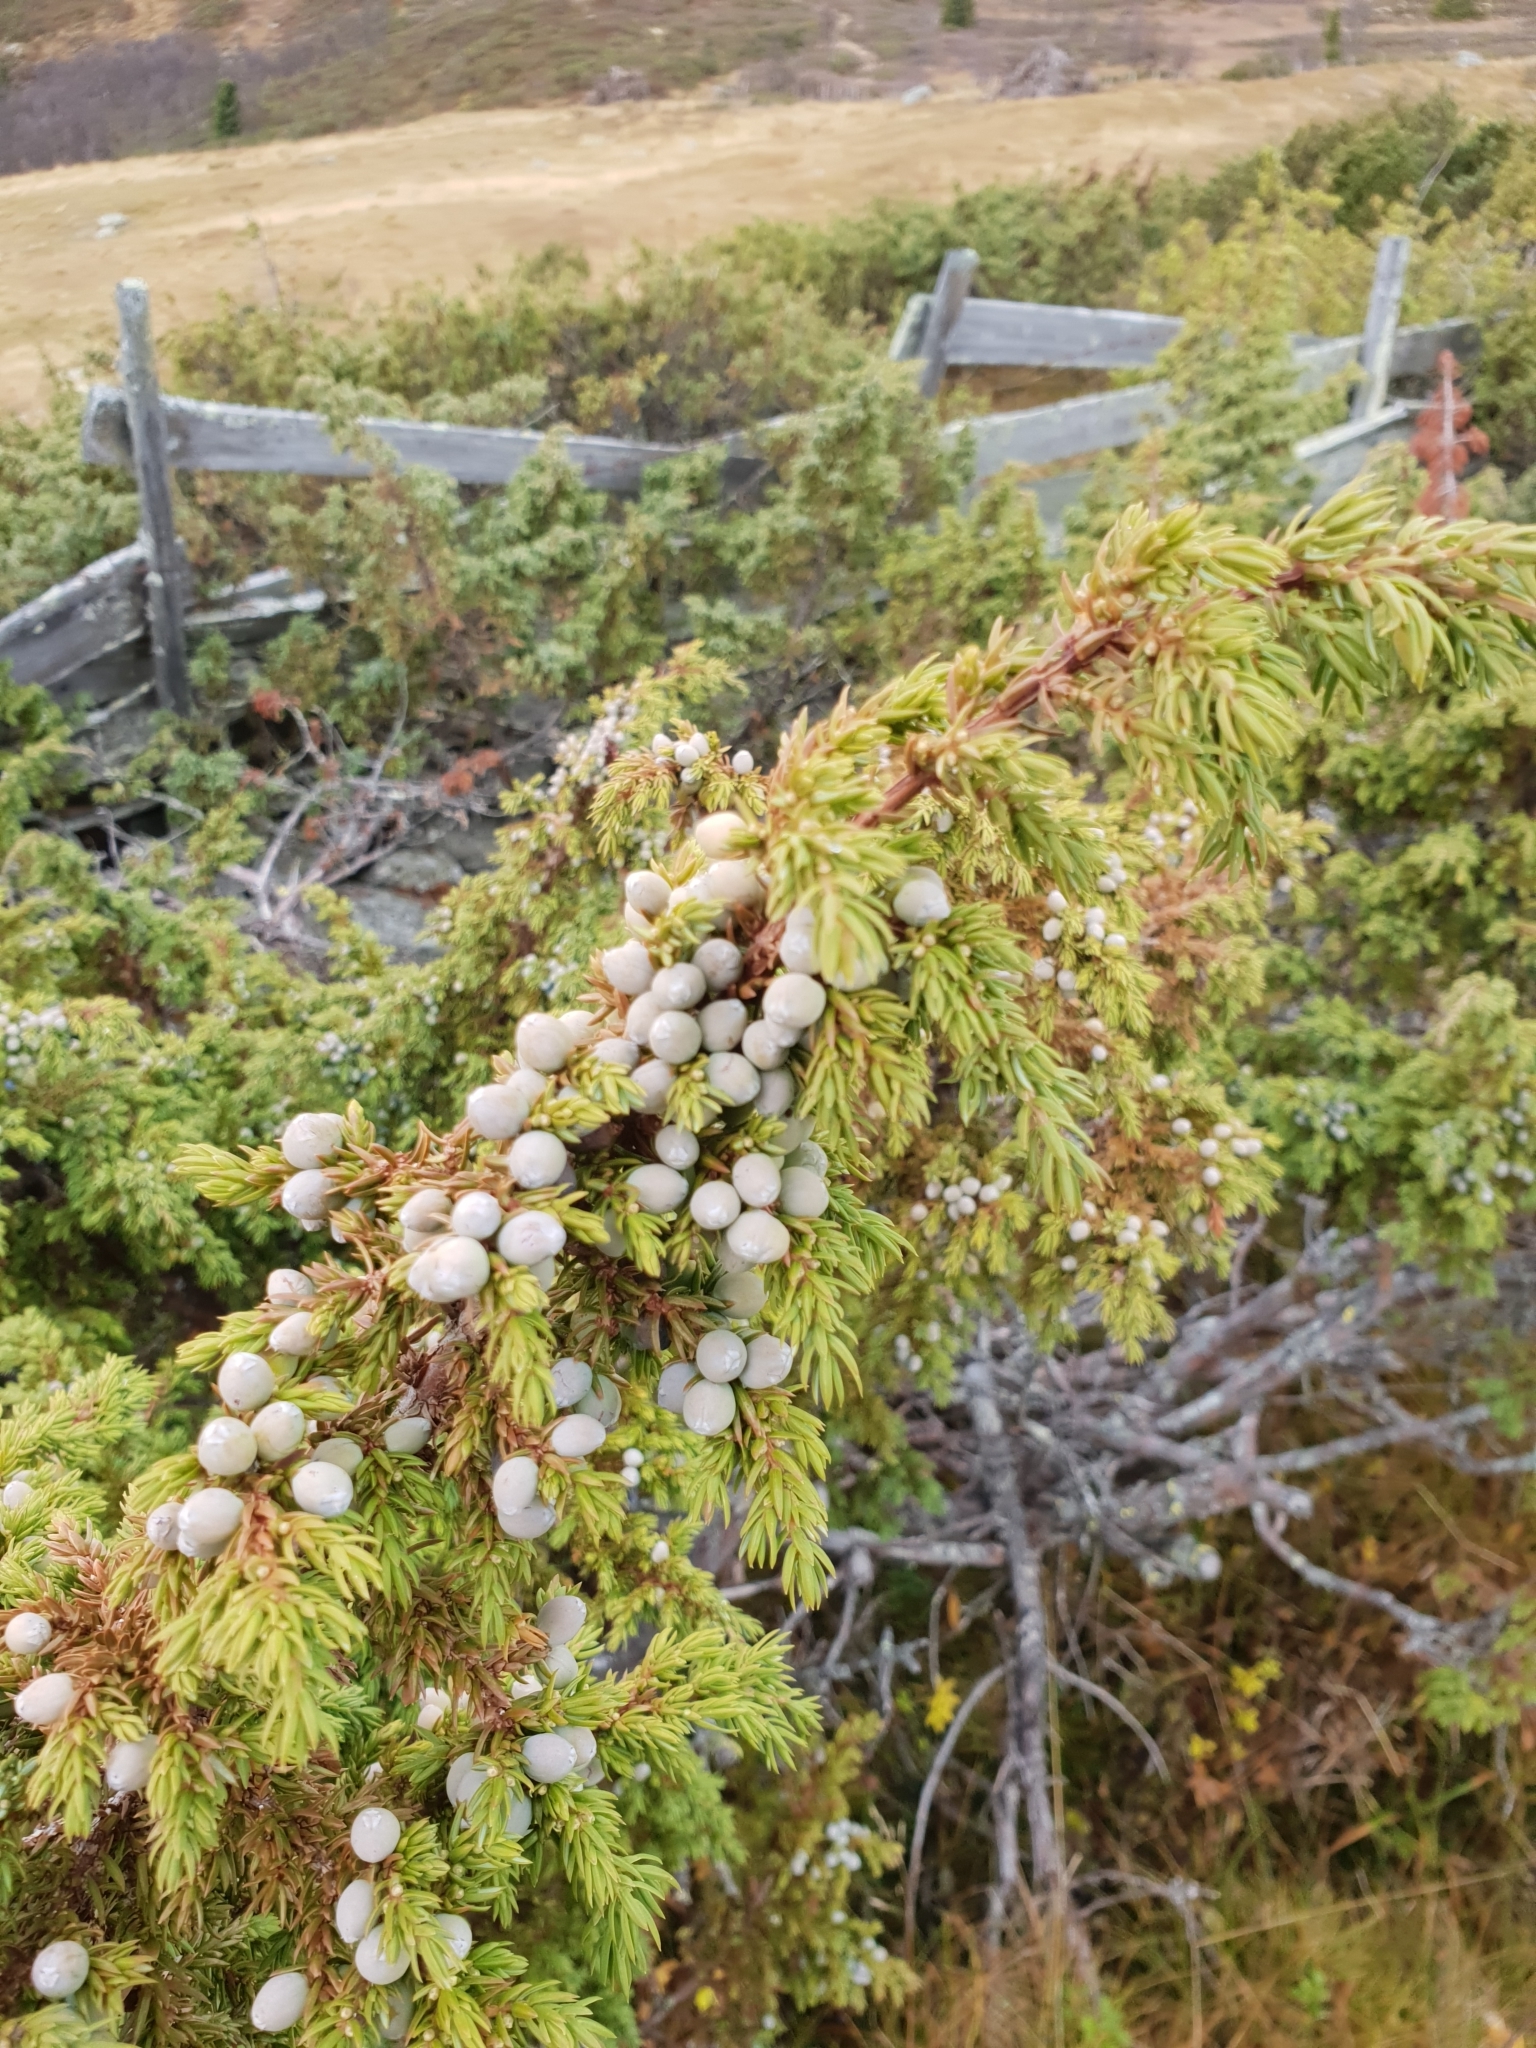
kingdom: Plantae
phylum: Tracheophyta
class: Pinopsida
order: Pinales
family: Cupressaceae
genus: Juniperus
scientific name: Juniperus communis
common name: Common juniper
